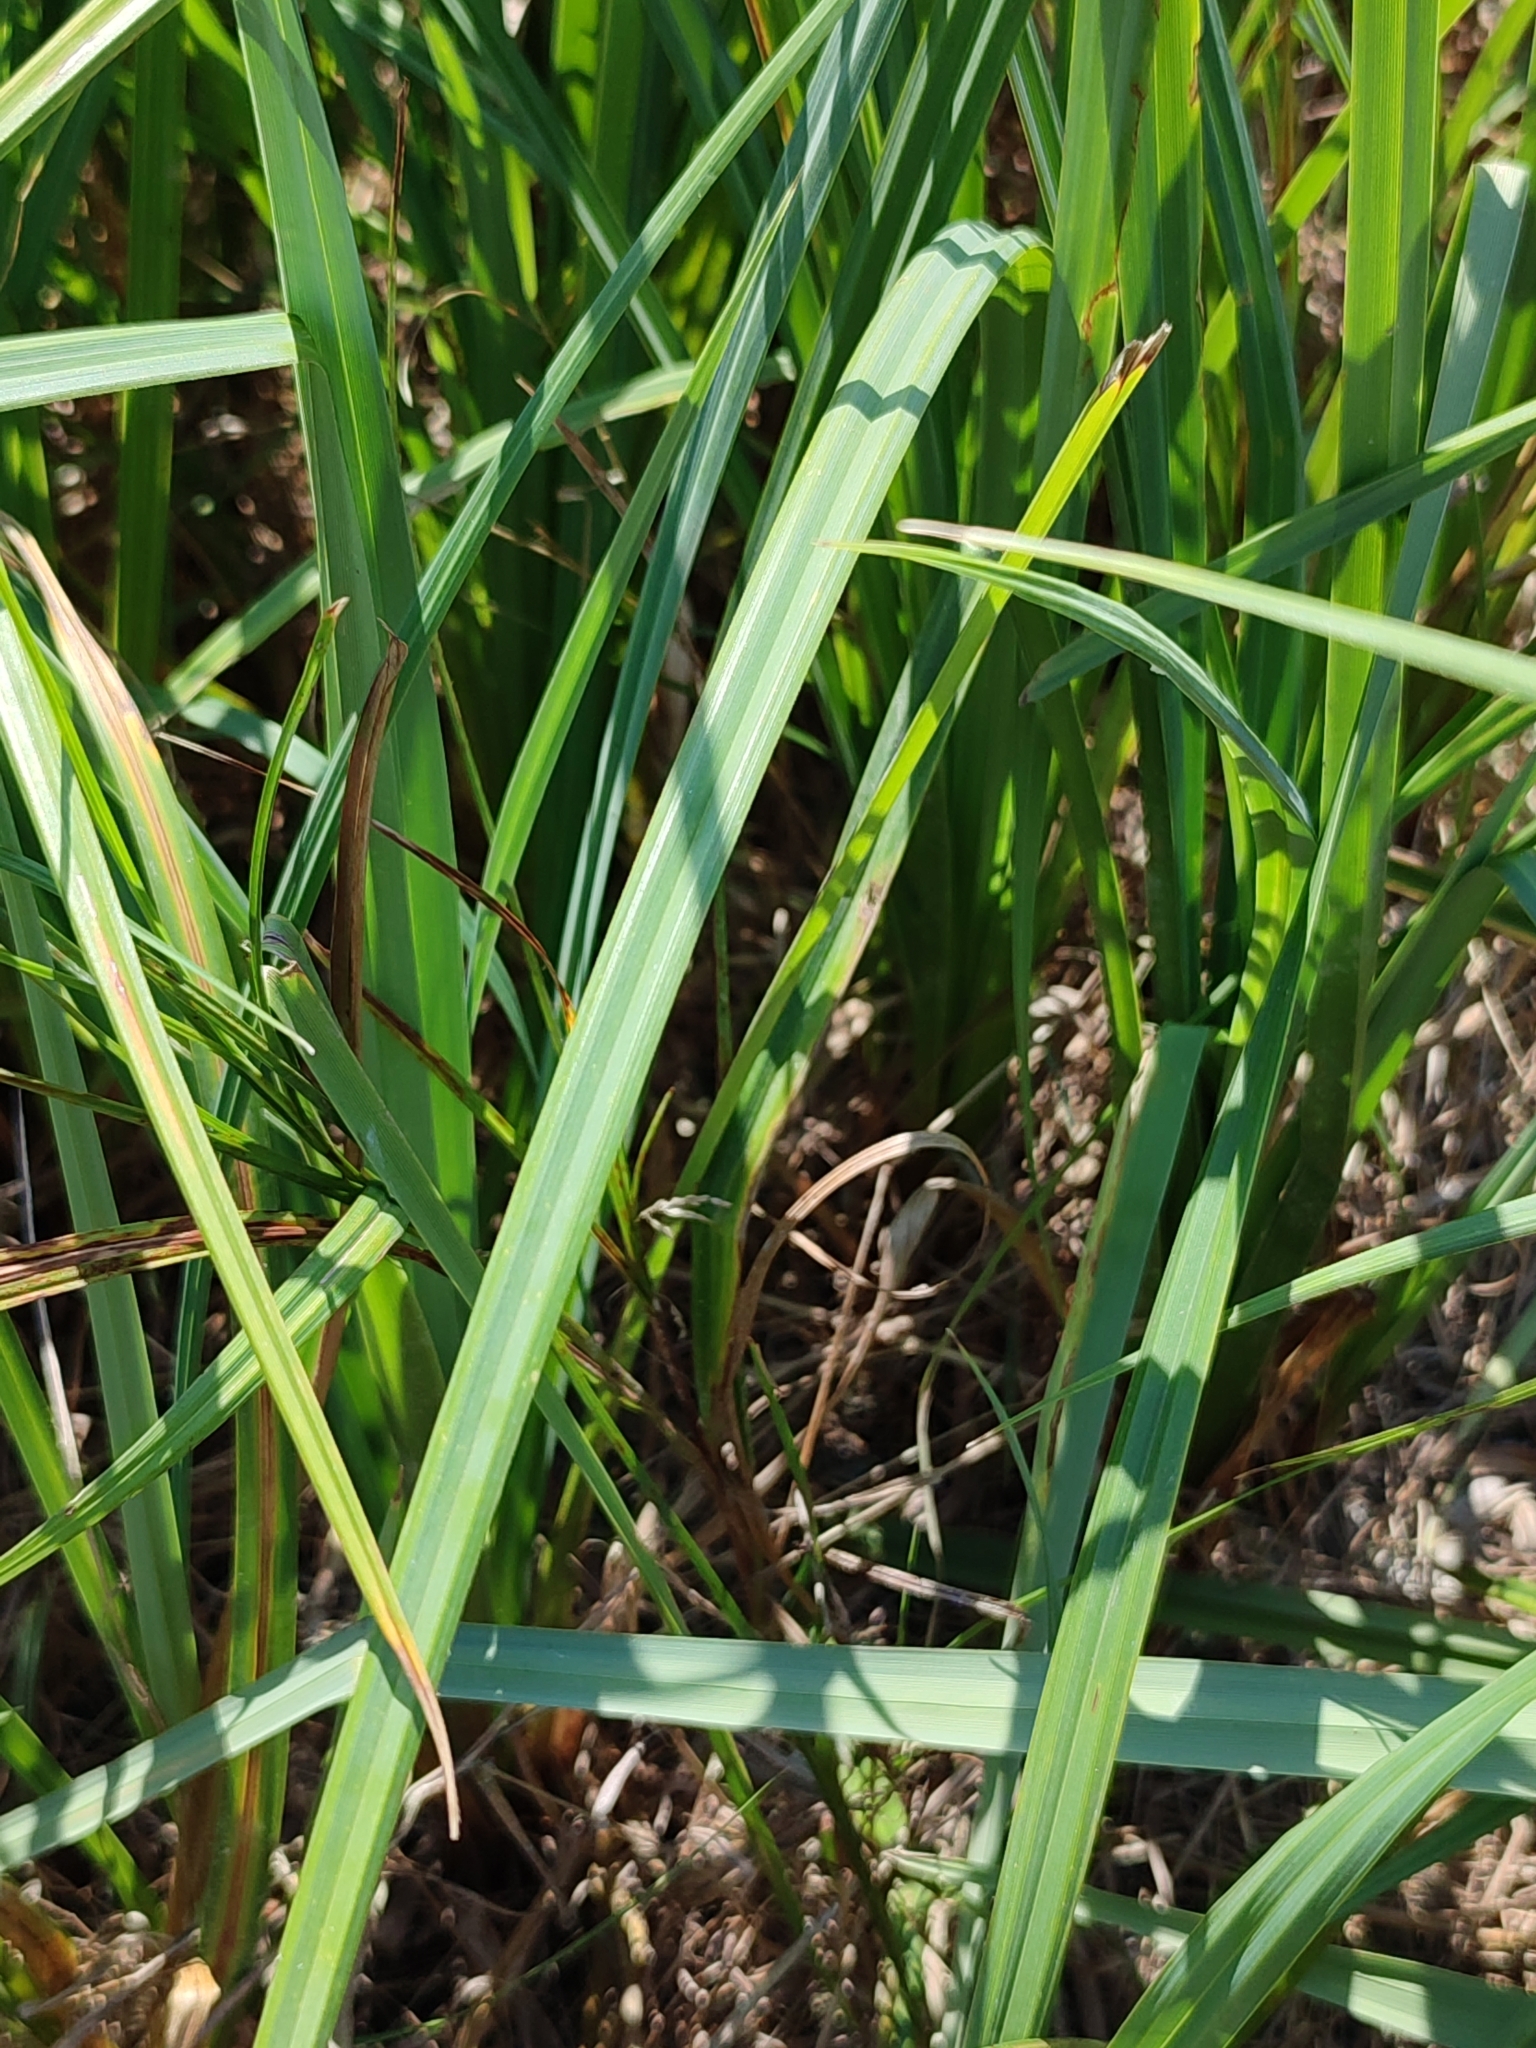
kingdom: Plantae
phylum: Tracheophyta
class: Liliopsida
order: Poales
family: Cyperaceae
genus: Carex
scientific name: Carex riparia
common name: Greater pond-sedge
